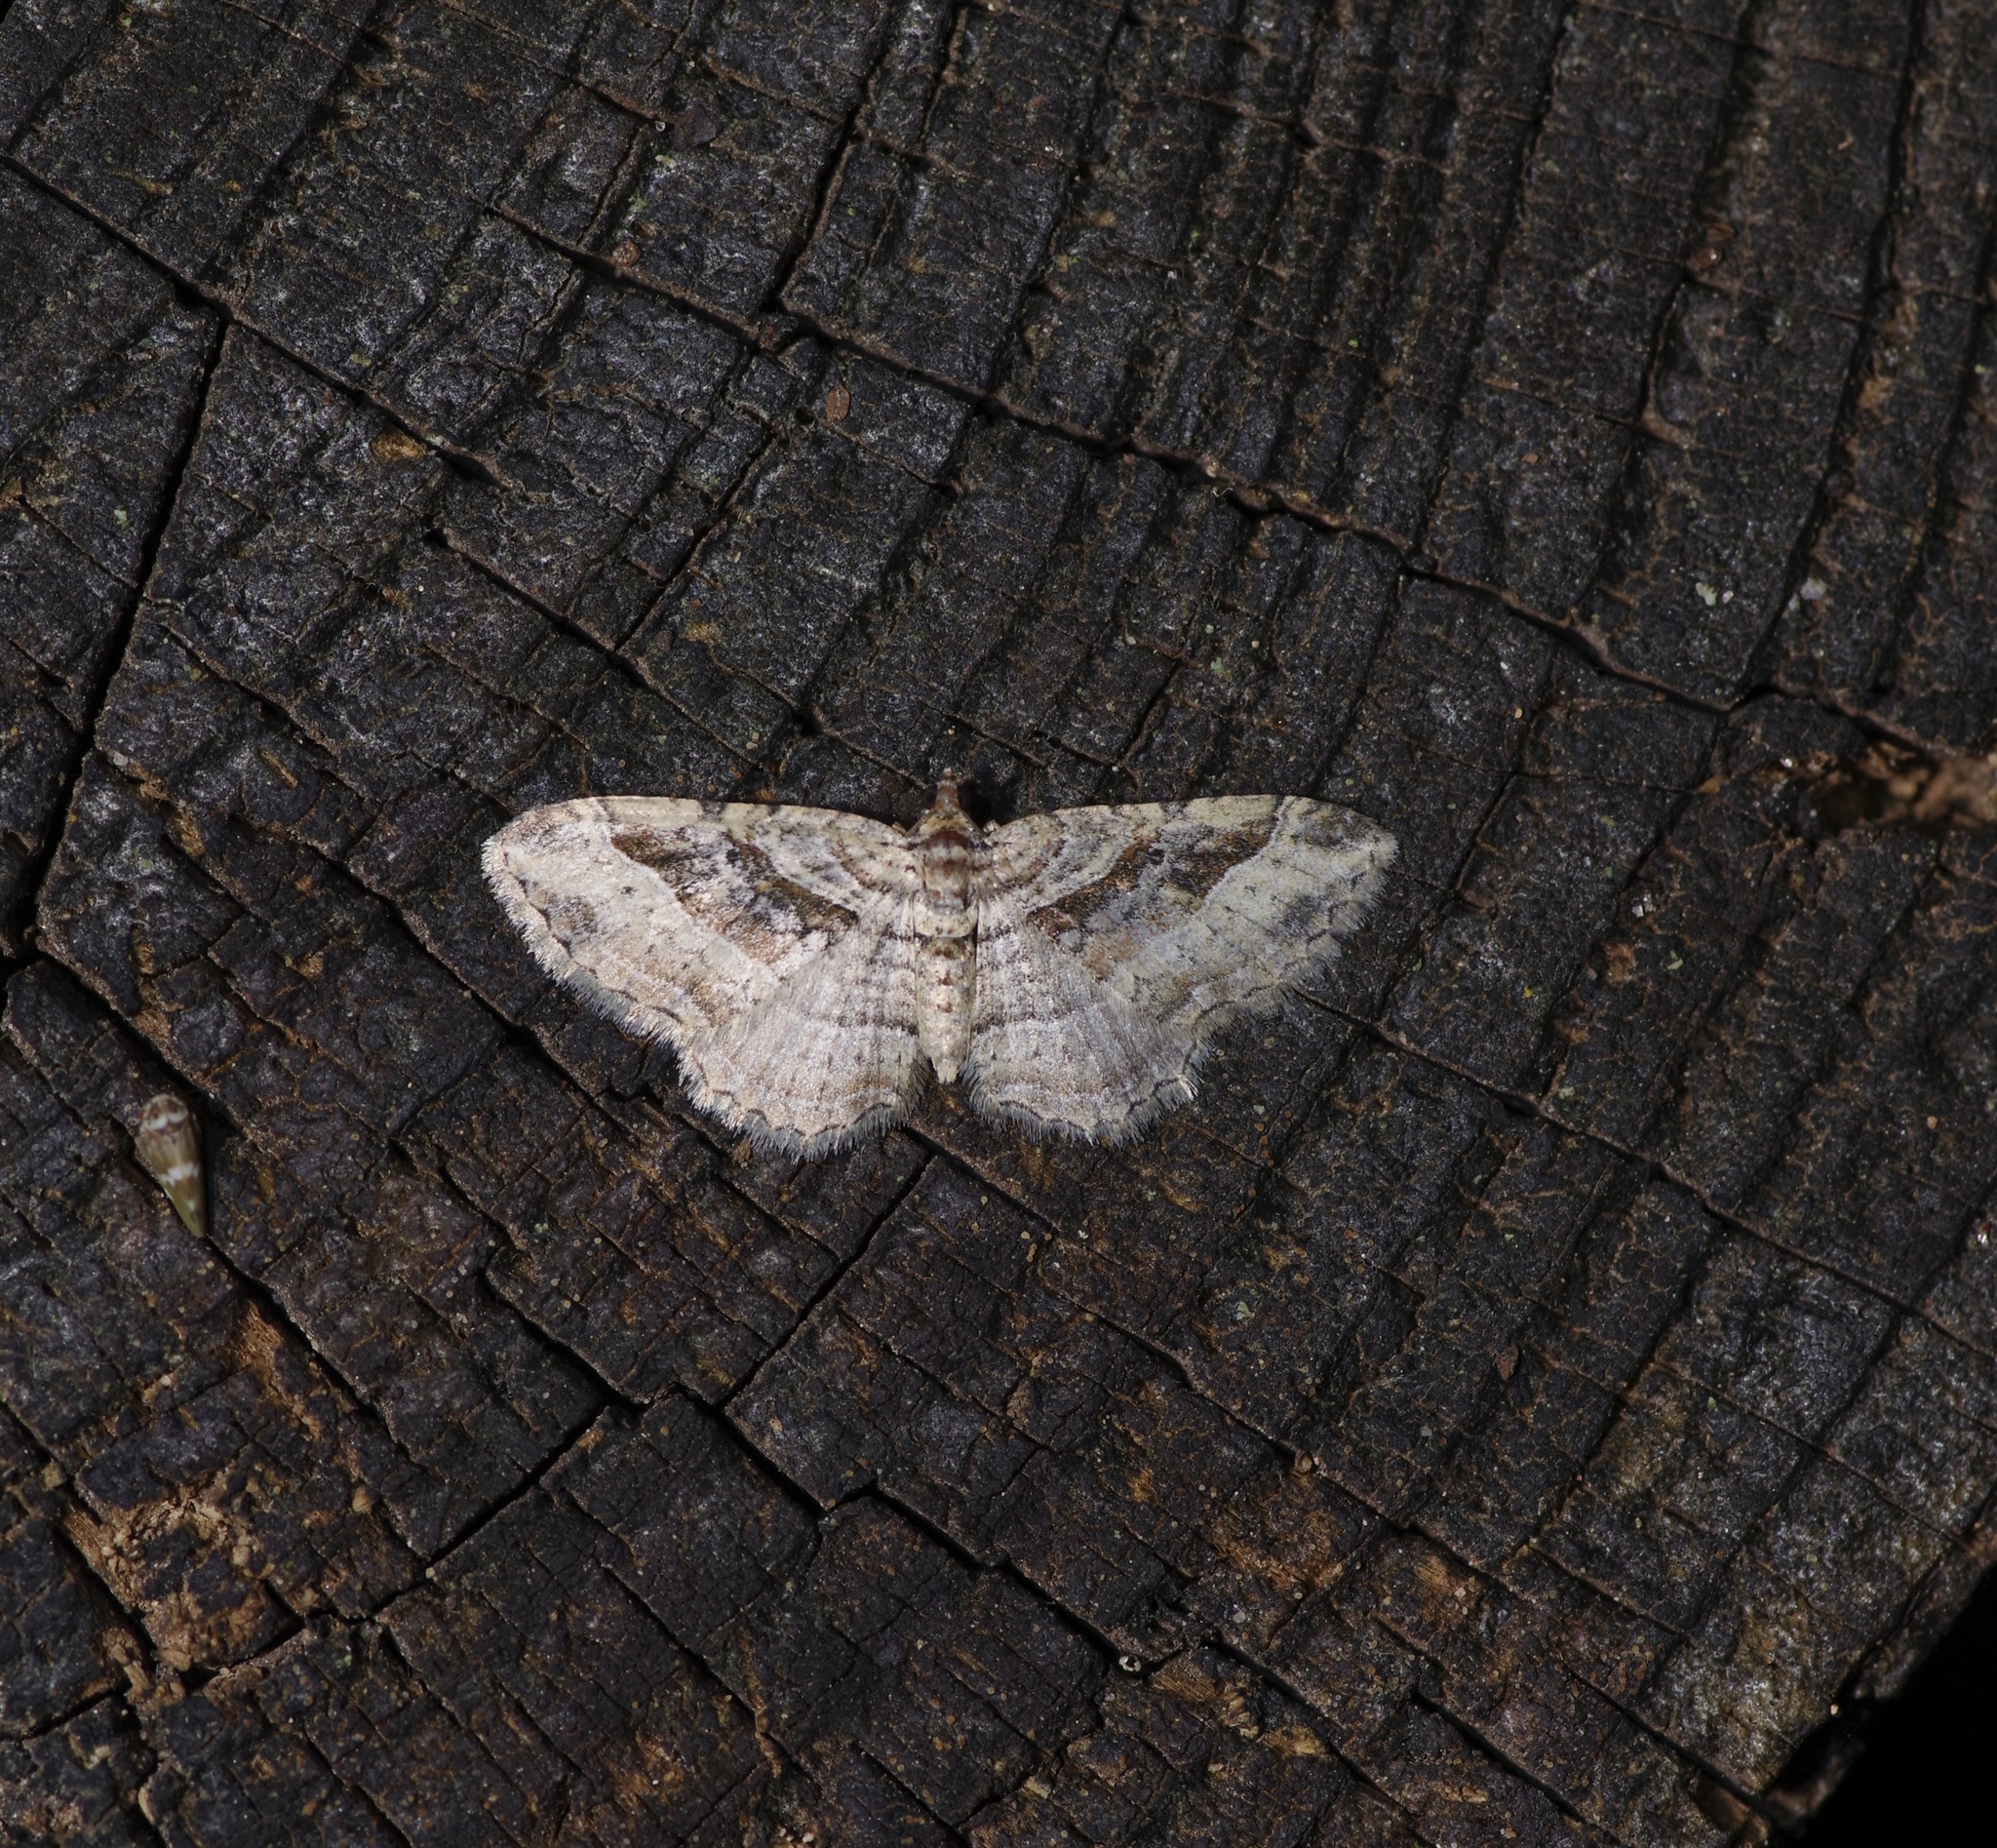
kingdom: Animalia
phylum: Arthropoda
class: Insecta
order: Lepidoptera
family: Geometridae
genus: Costaconvexa
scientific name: Costaconvexa centrostrigaria
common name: Bent-line carpet
